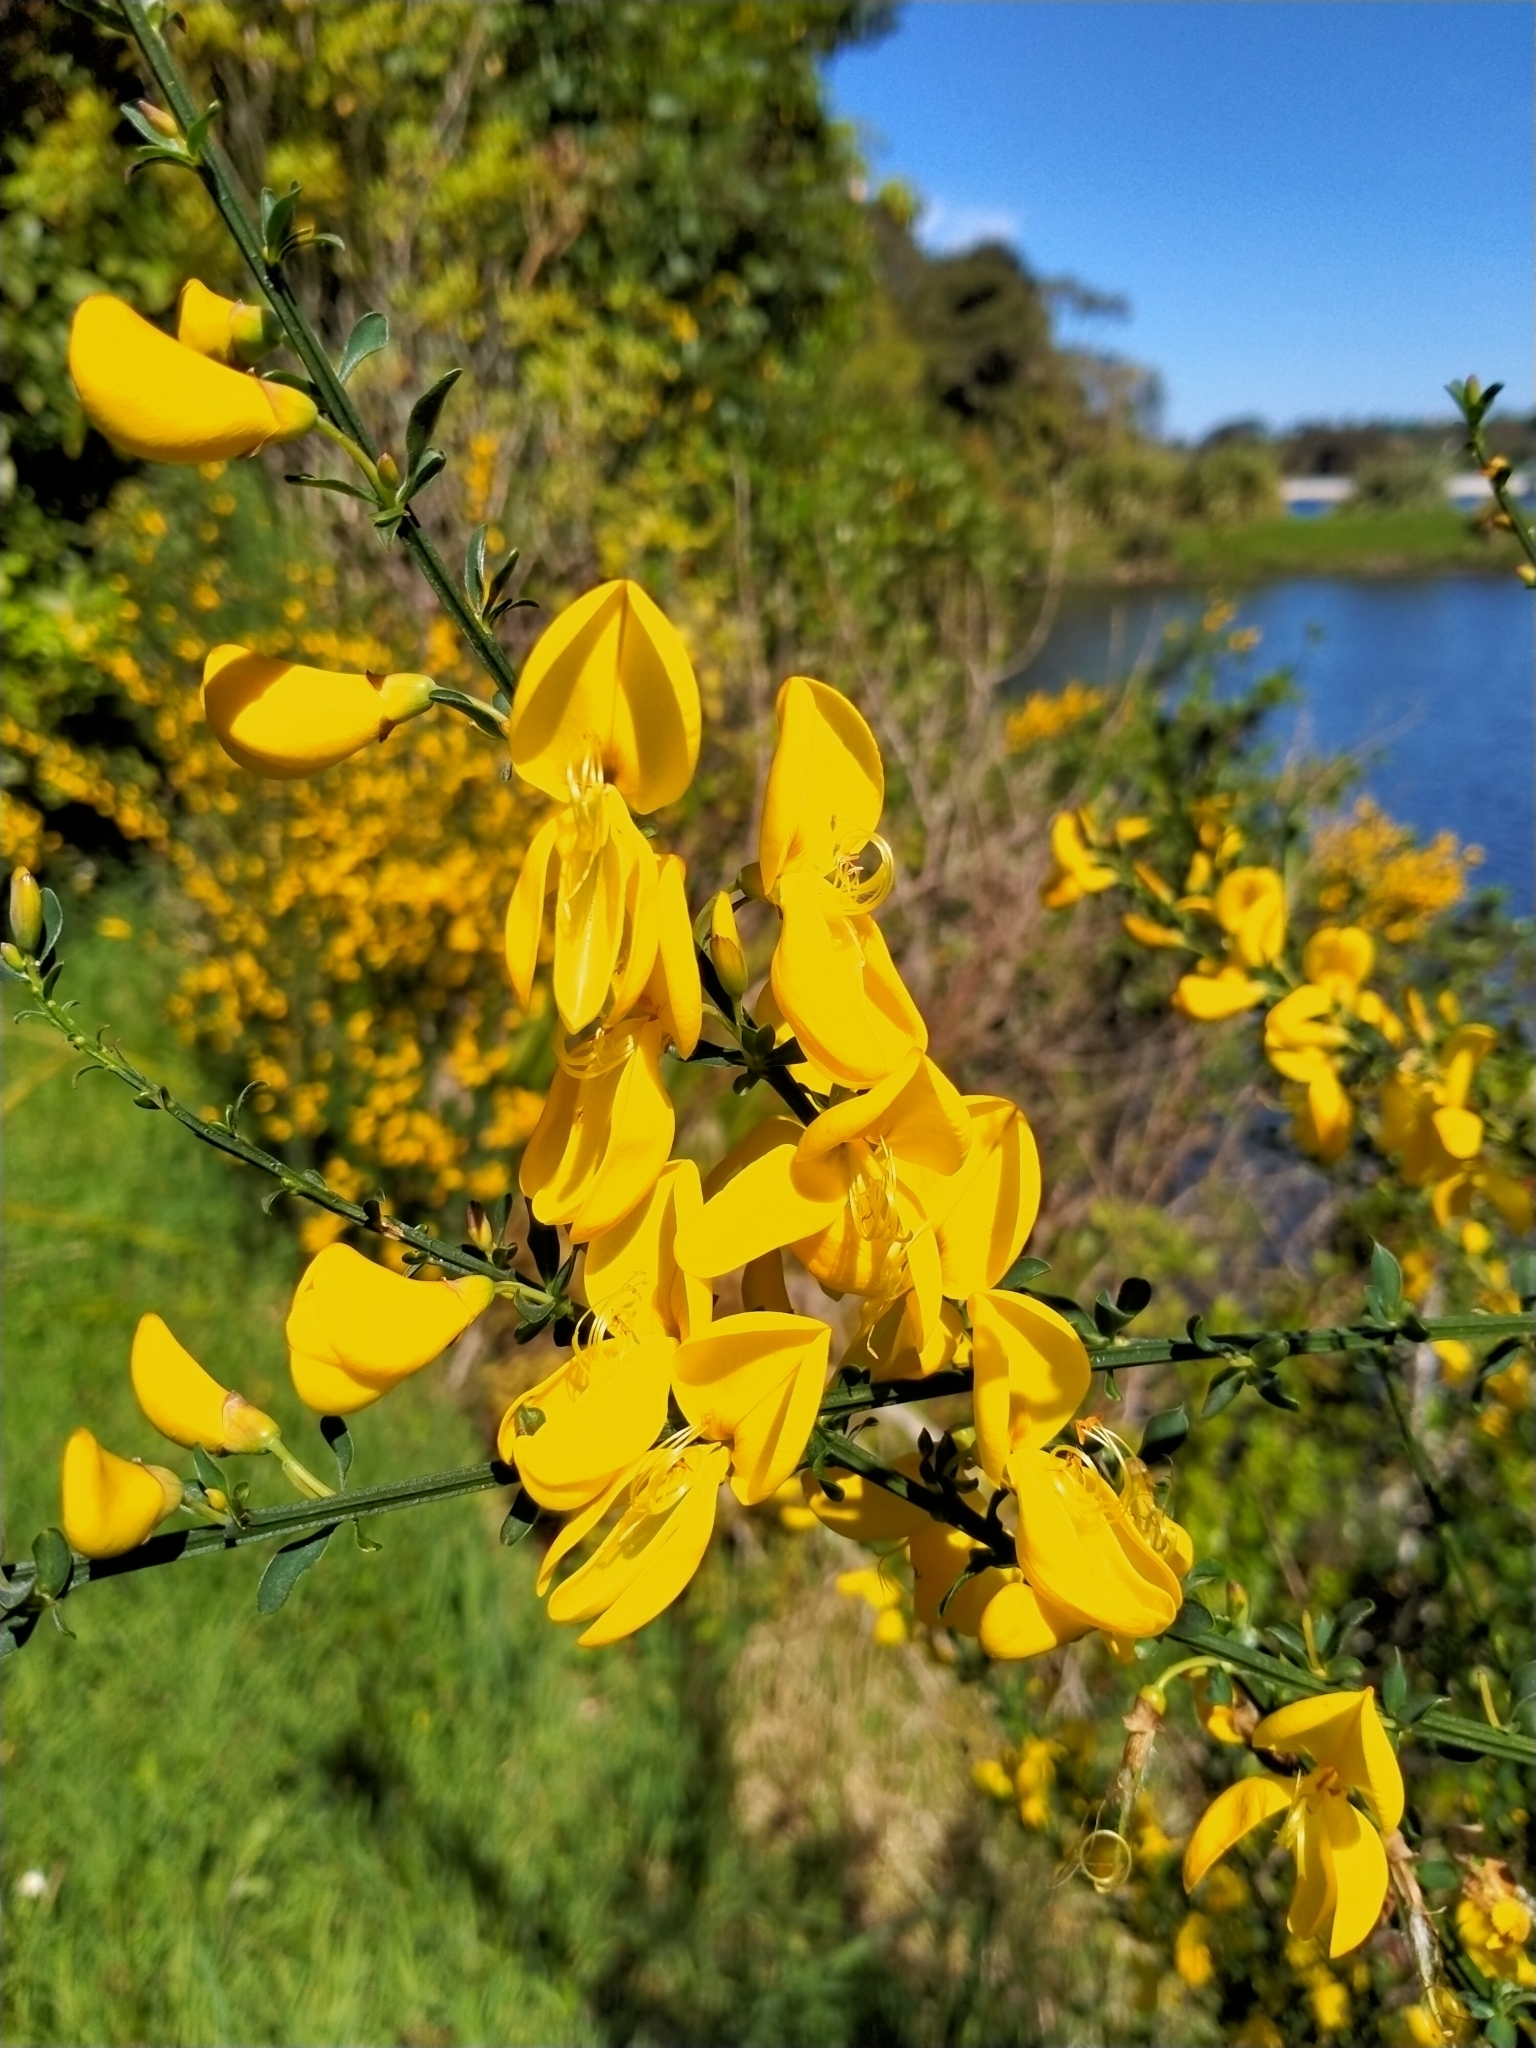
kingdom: Plantae
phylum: Tracheophyta
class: Magnoliopsida
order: Fabales
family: Fabaceae
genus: Cytisus
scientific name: Cytisus scoparius
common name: Scotch broom
